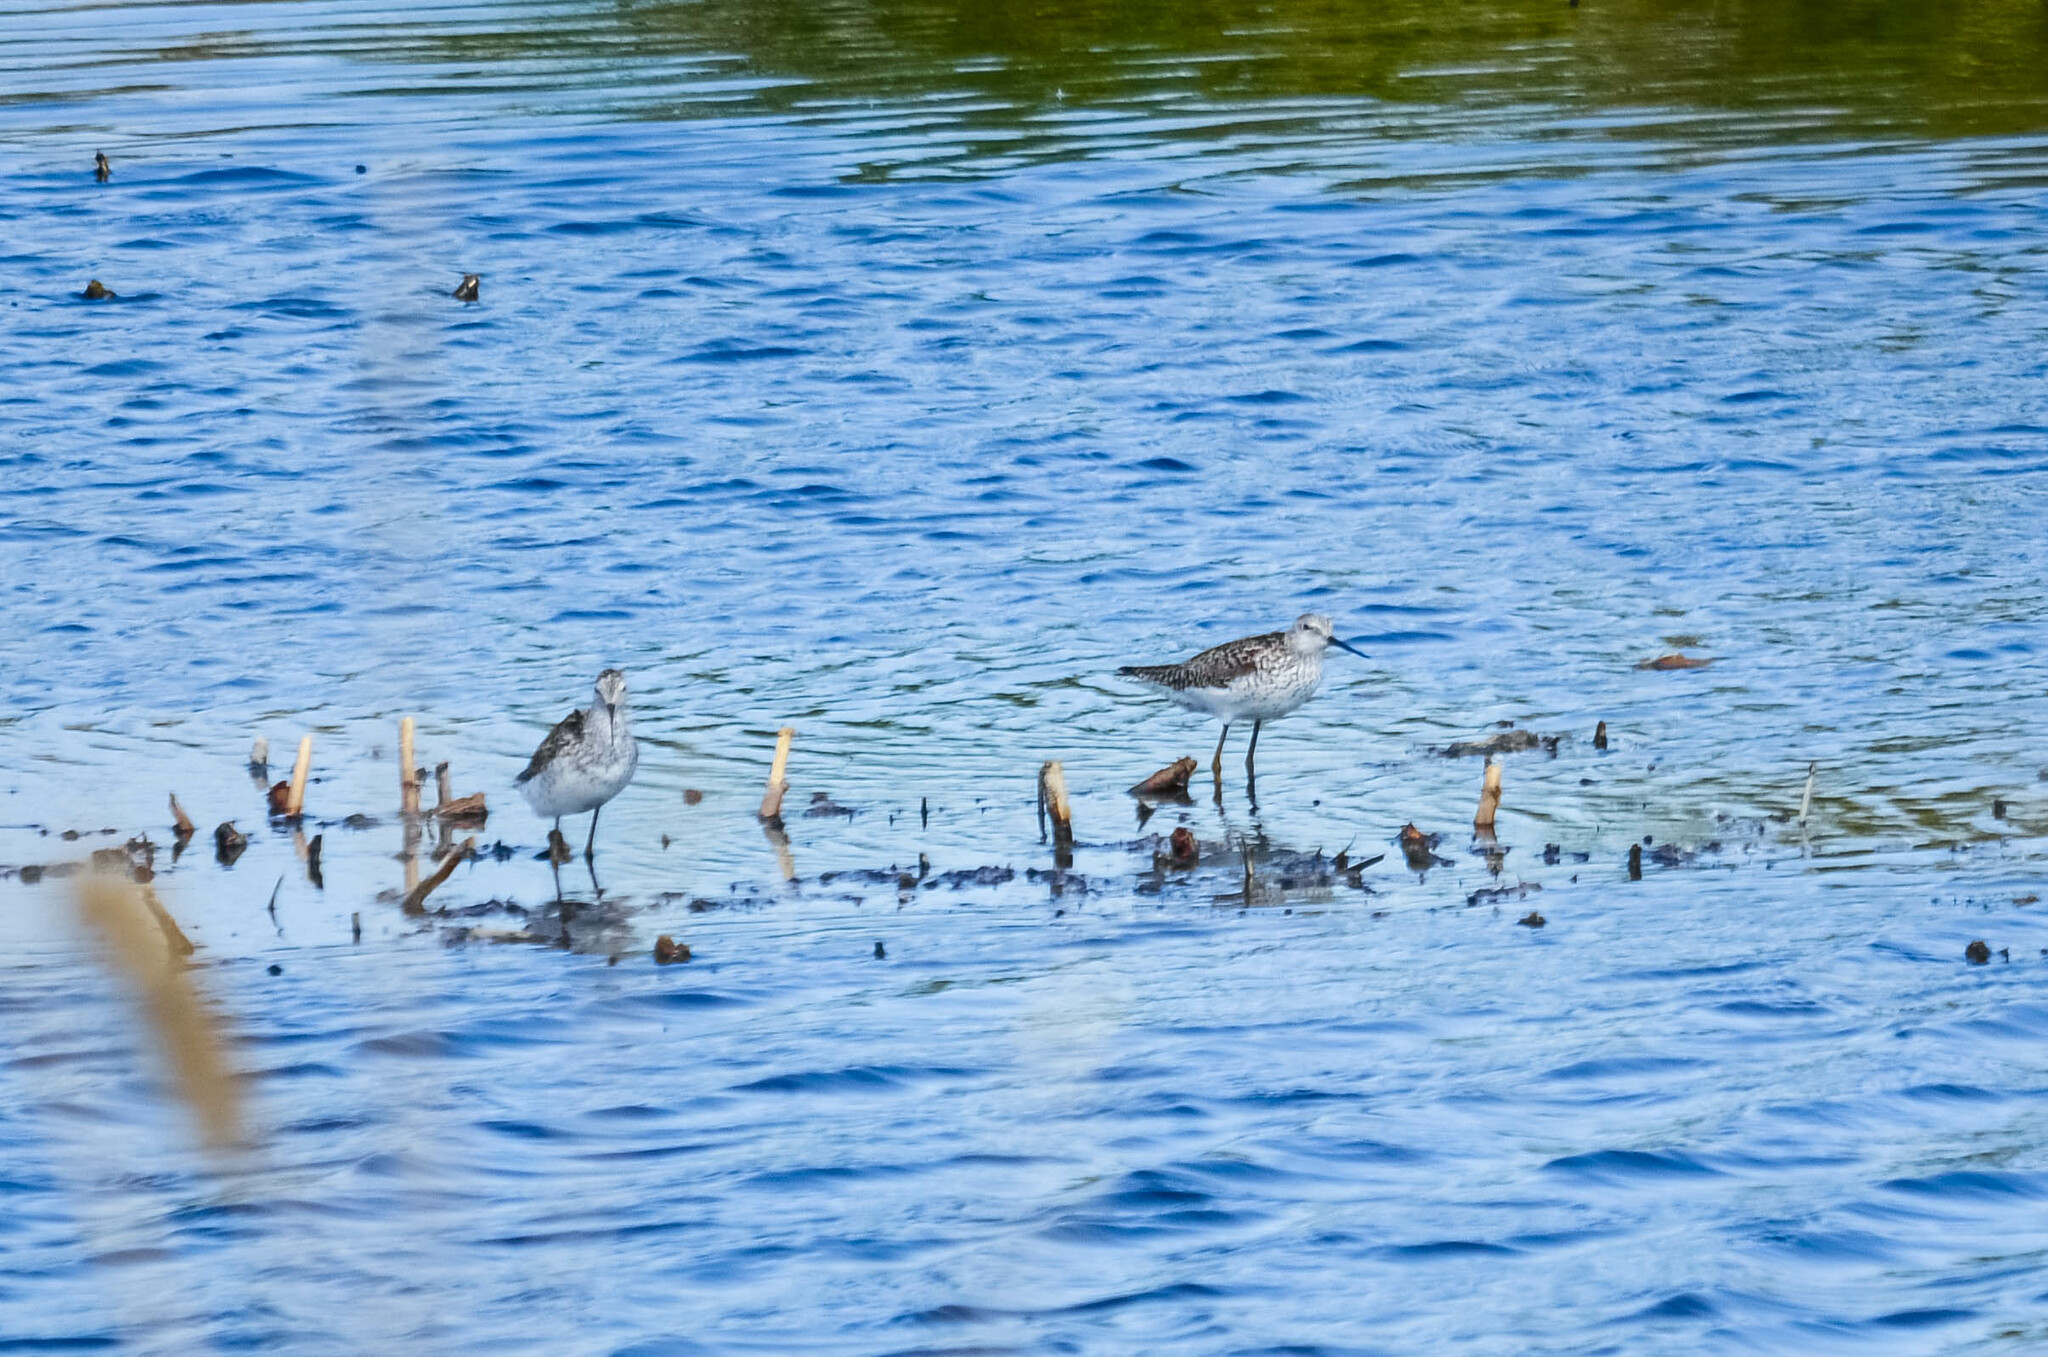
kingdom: Animalia
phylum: Chordata
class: Aves
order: Charadriiformes
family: Scolopacidae
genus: Tringa
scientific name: Tringa stagnatilis
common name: Marsh sandpiper
